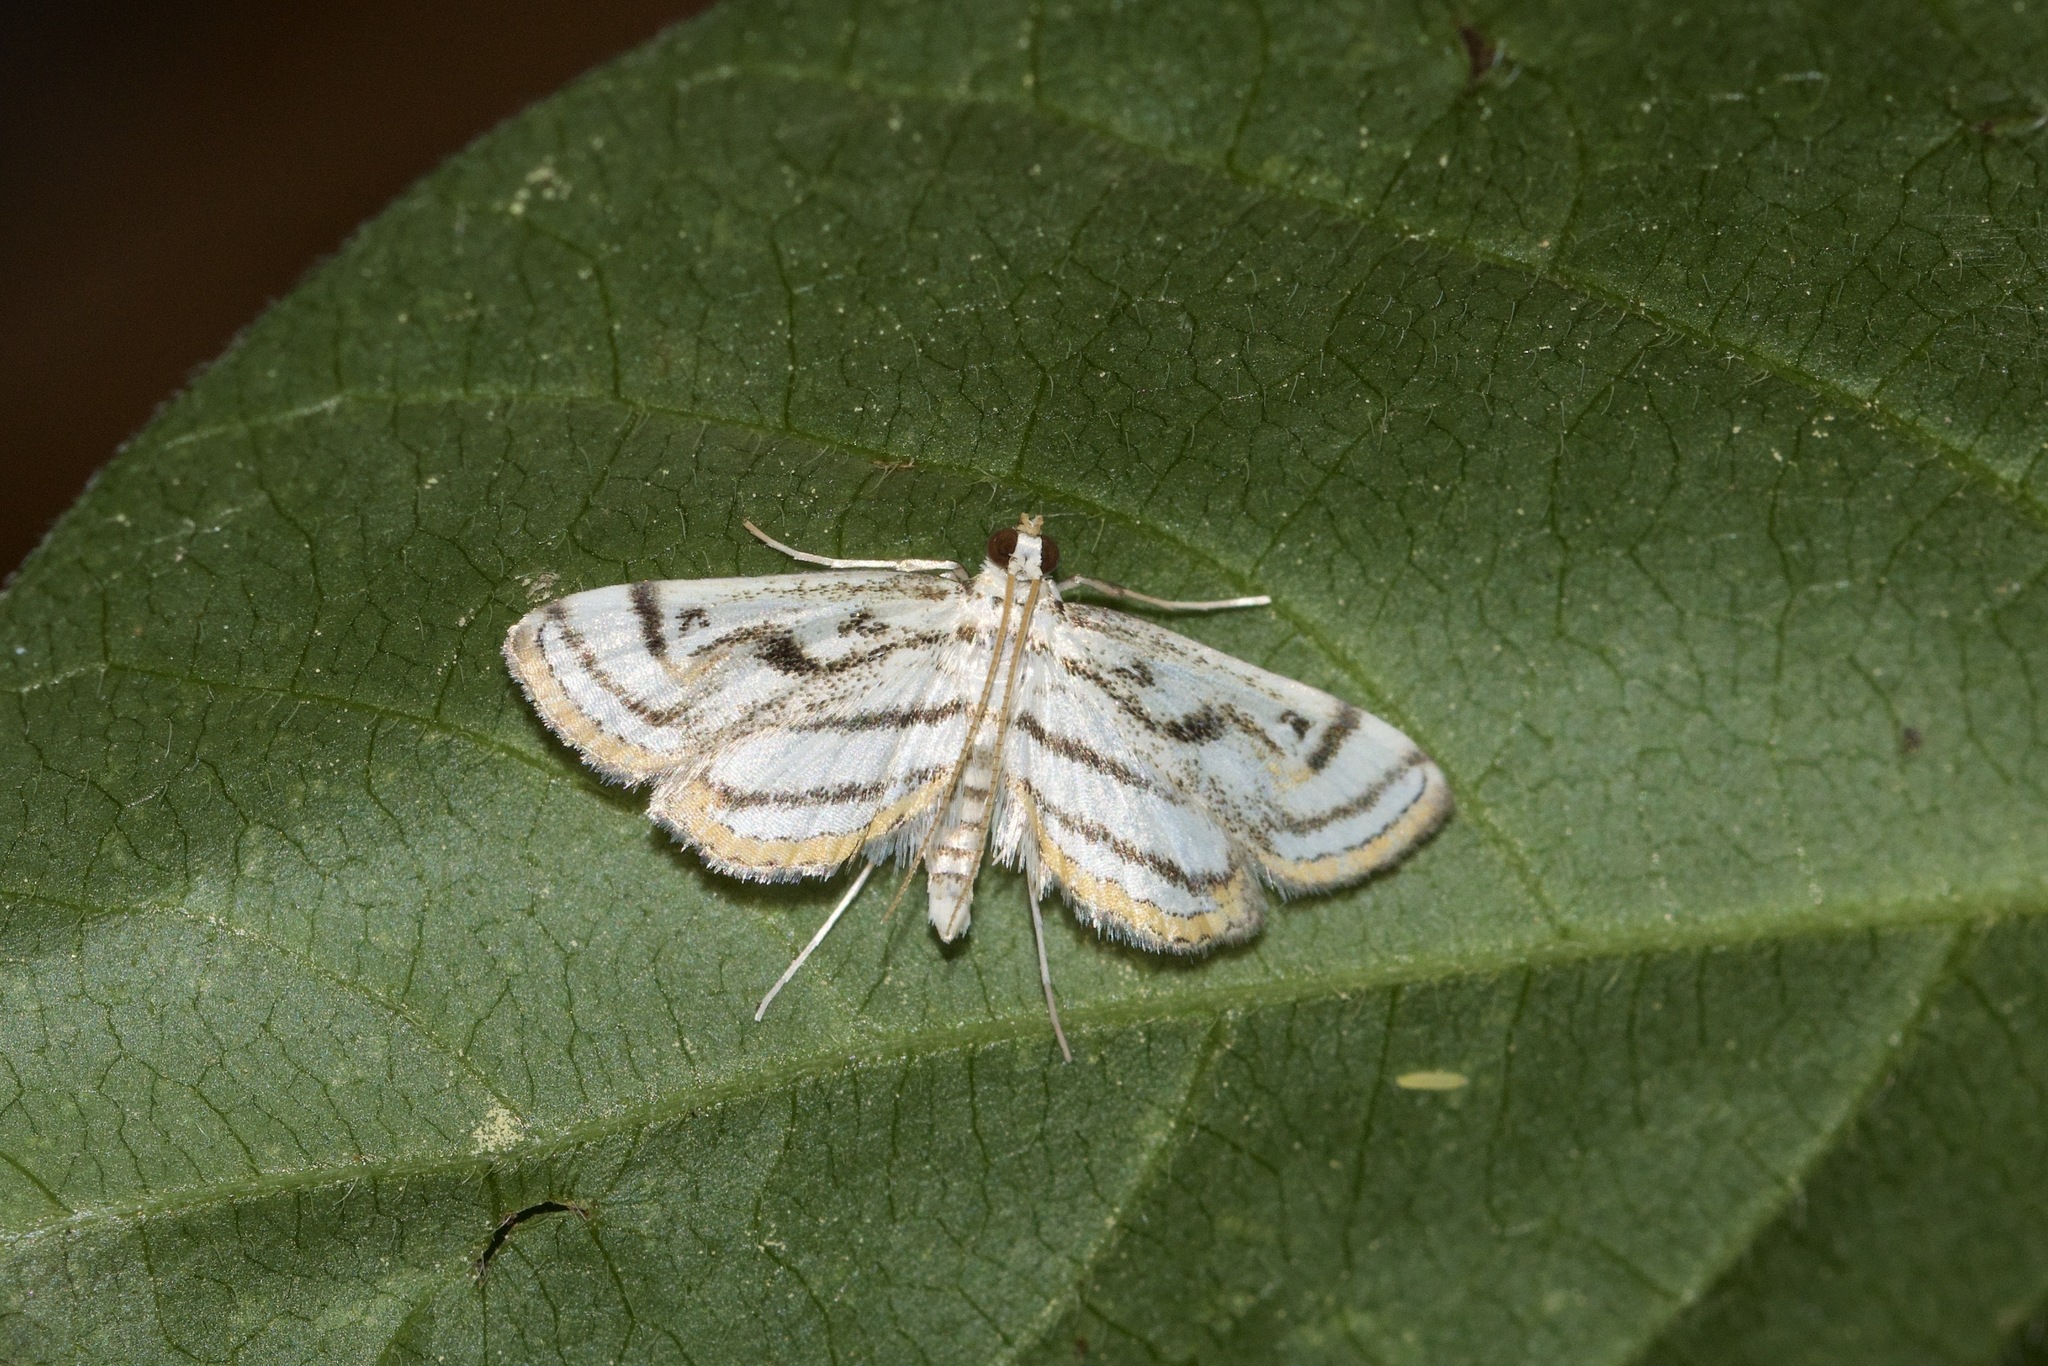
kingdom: Animalia
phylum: Arthropoda
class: Insecta
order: Lepidoptera
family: Crambidae
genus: Parapoynx
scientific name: Parapoynx badiusalis
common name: Chestnut-marked pondweed moth
